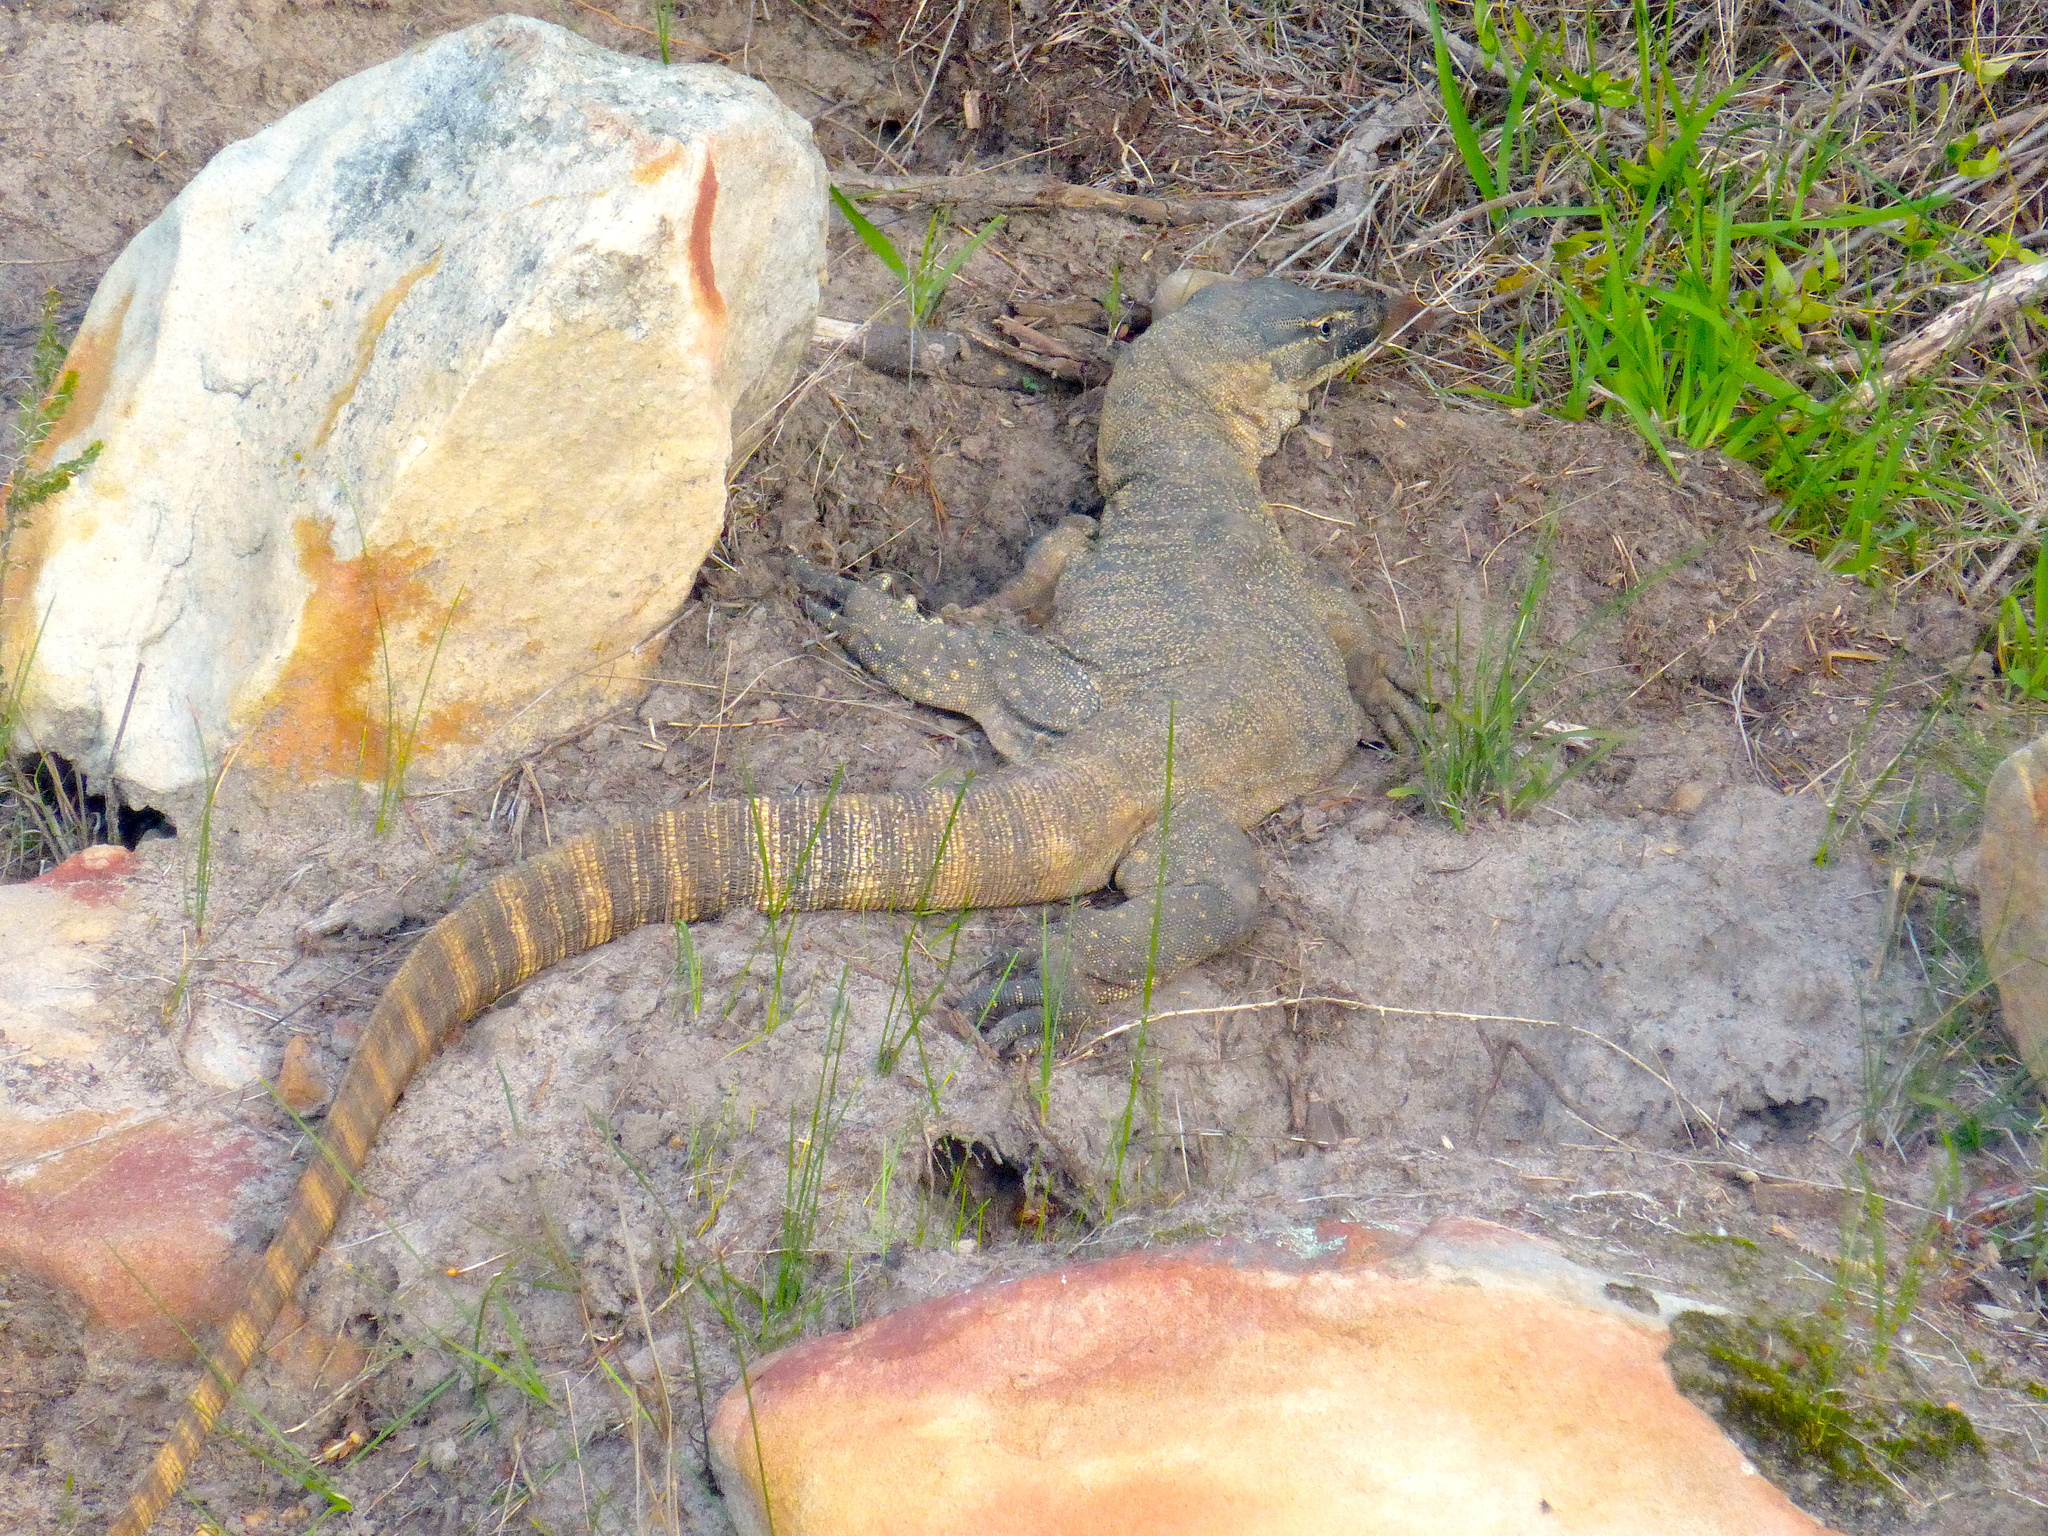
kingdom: Animalia
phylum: Chordata
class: Squamata
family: Varanidae
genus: Varanus
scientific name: Varanus rosenbergi
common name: Heath monitor
